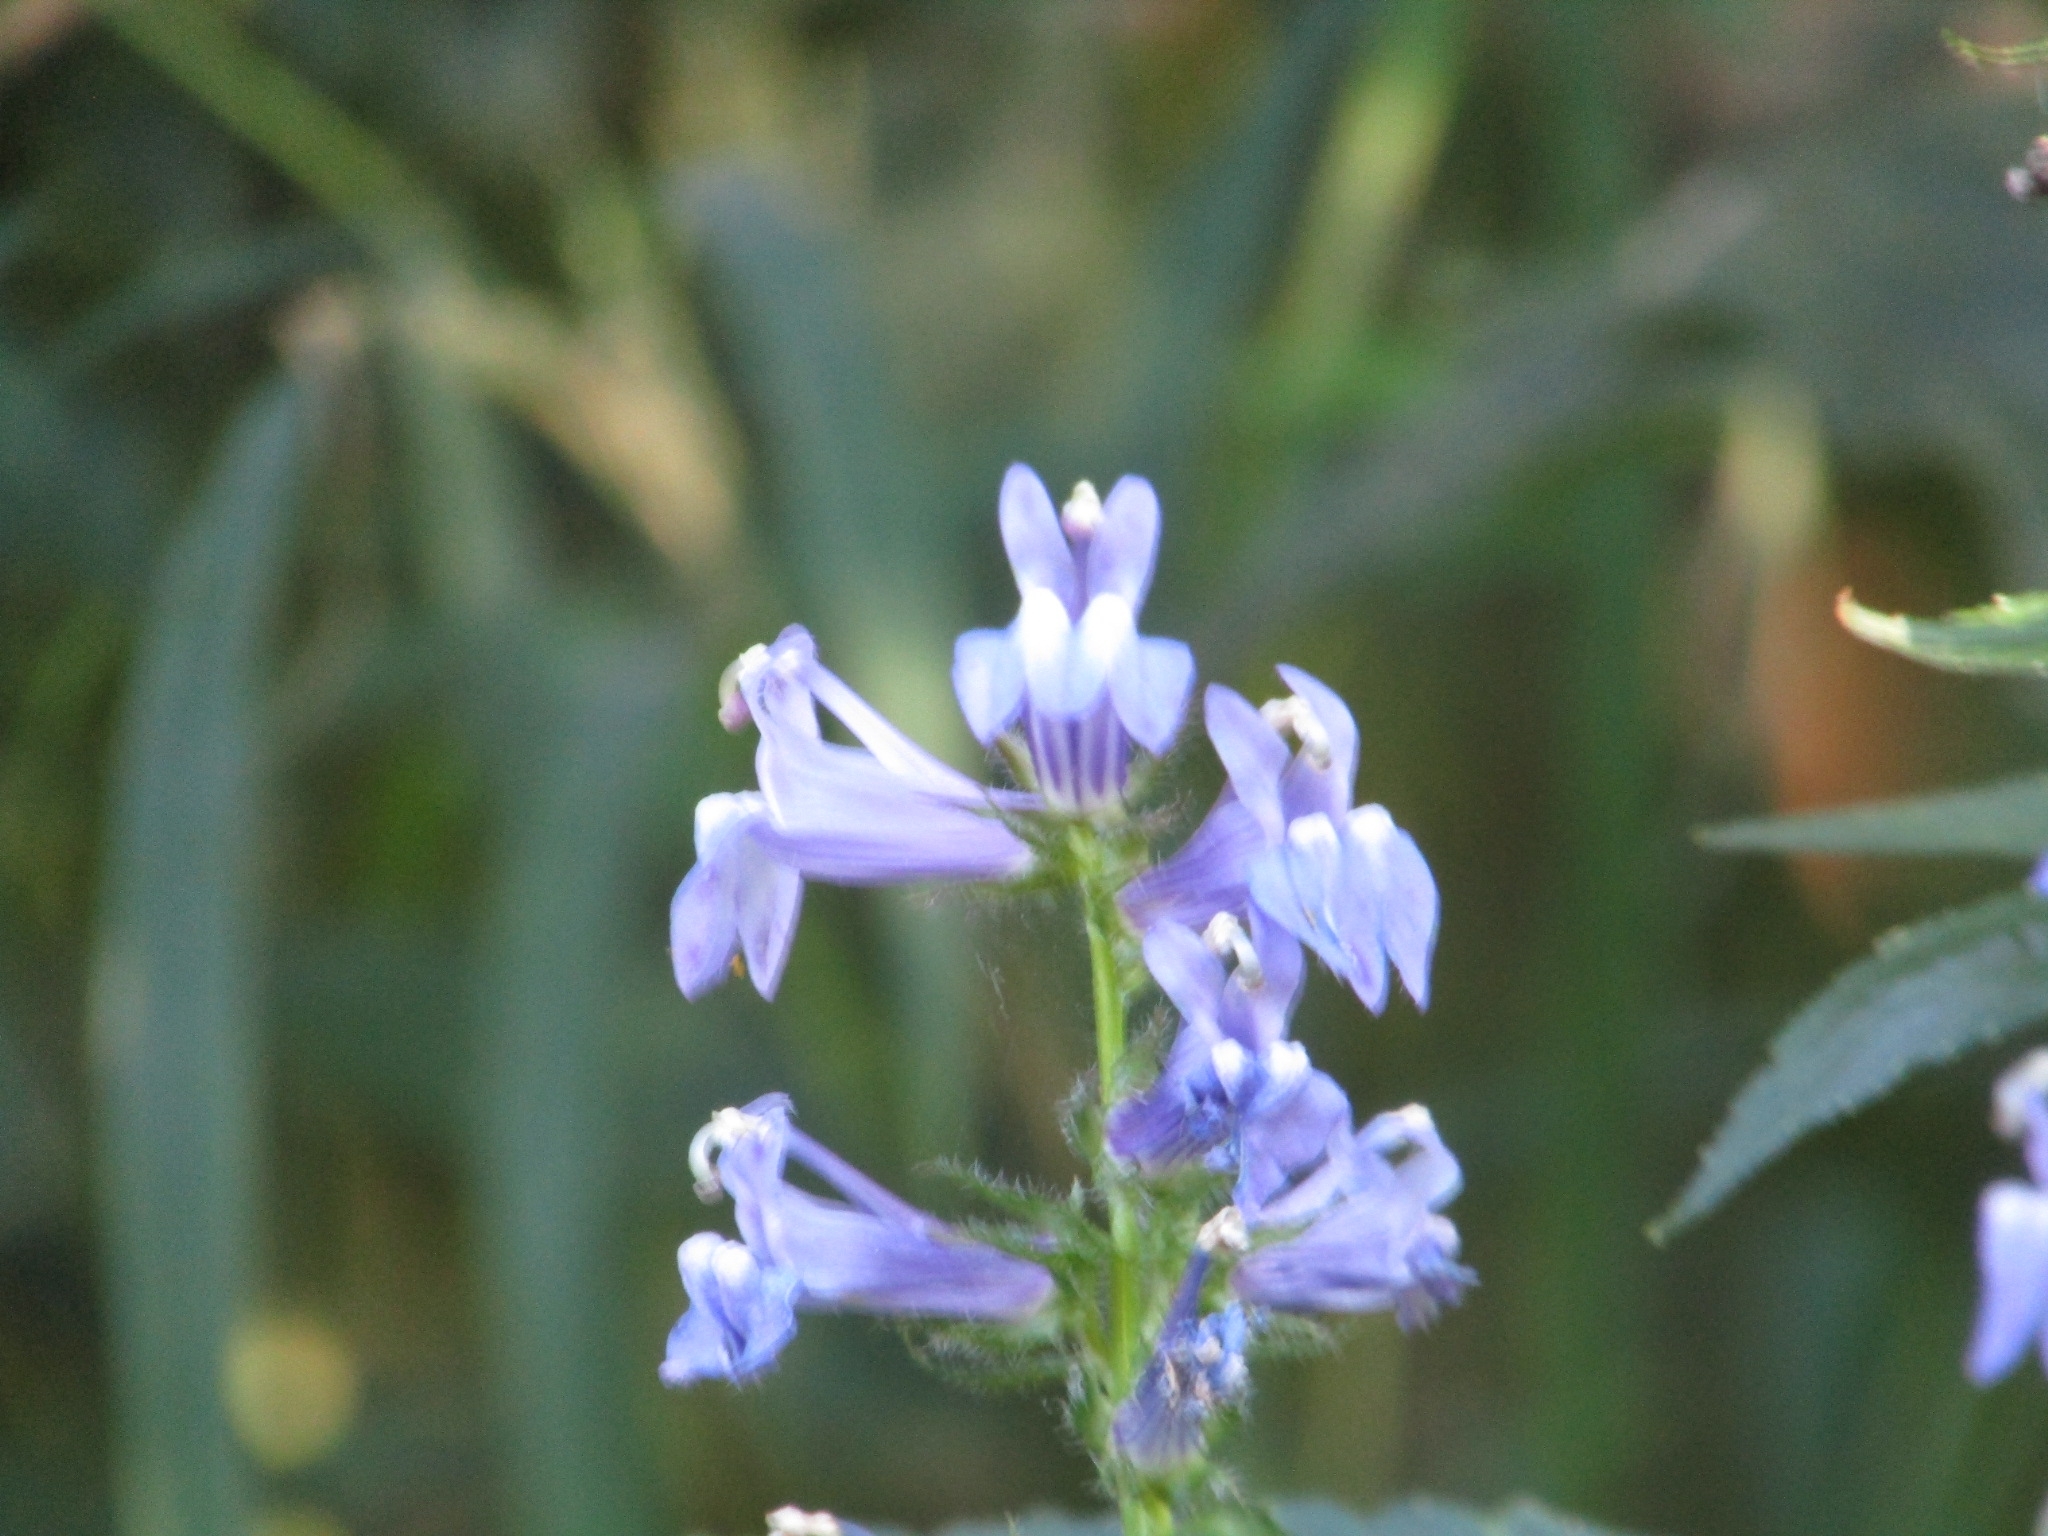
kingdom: Plantae
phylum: Tracheophyta
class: Magnoliopsida
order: Asterales
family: Campanulaceae
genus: Lobelia
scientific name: Lobelia siphilitica
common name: Great lobelia
